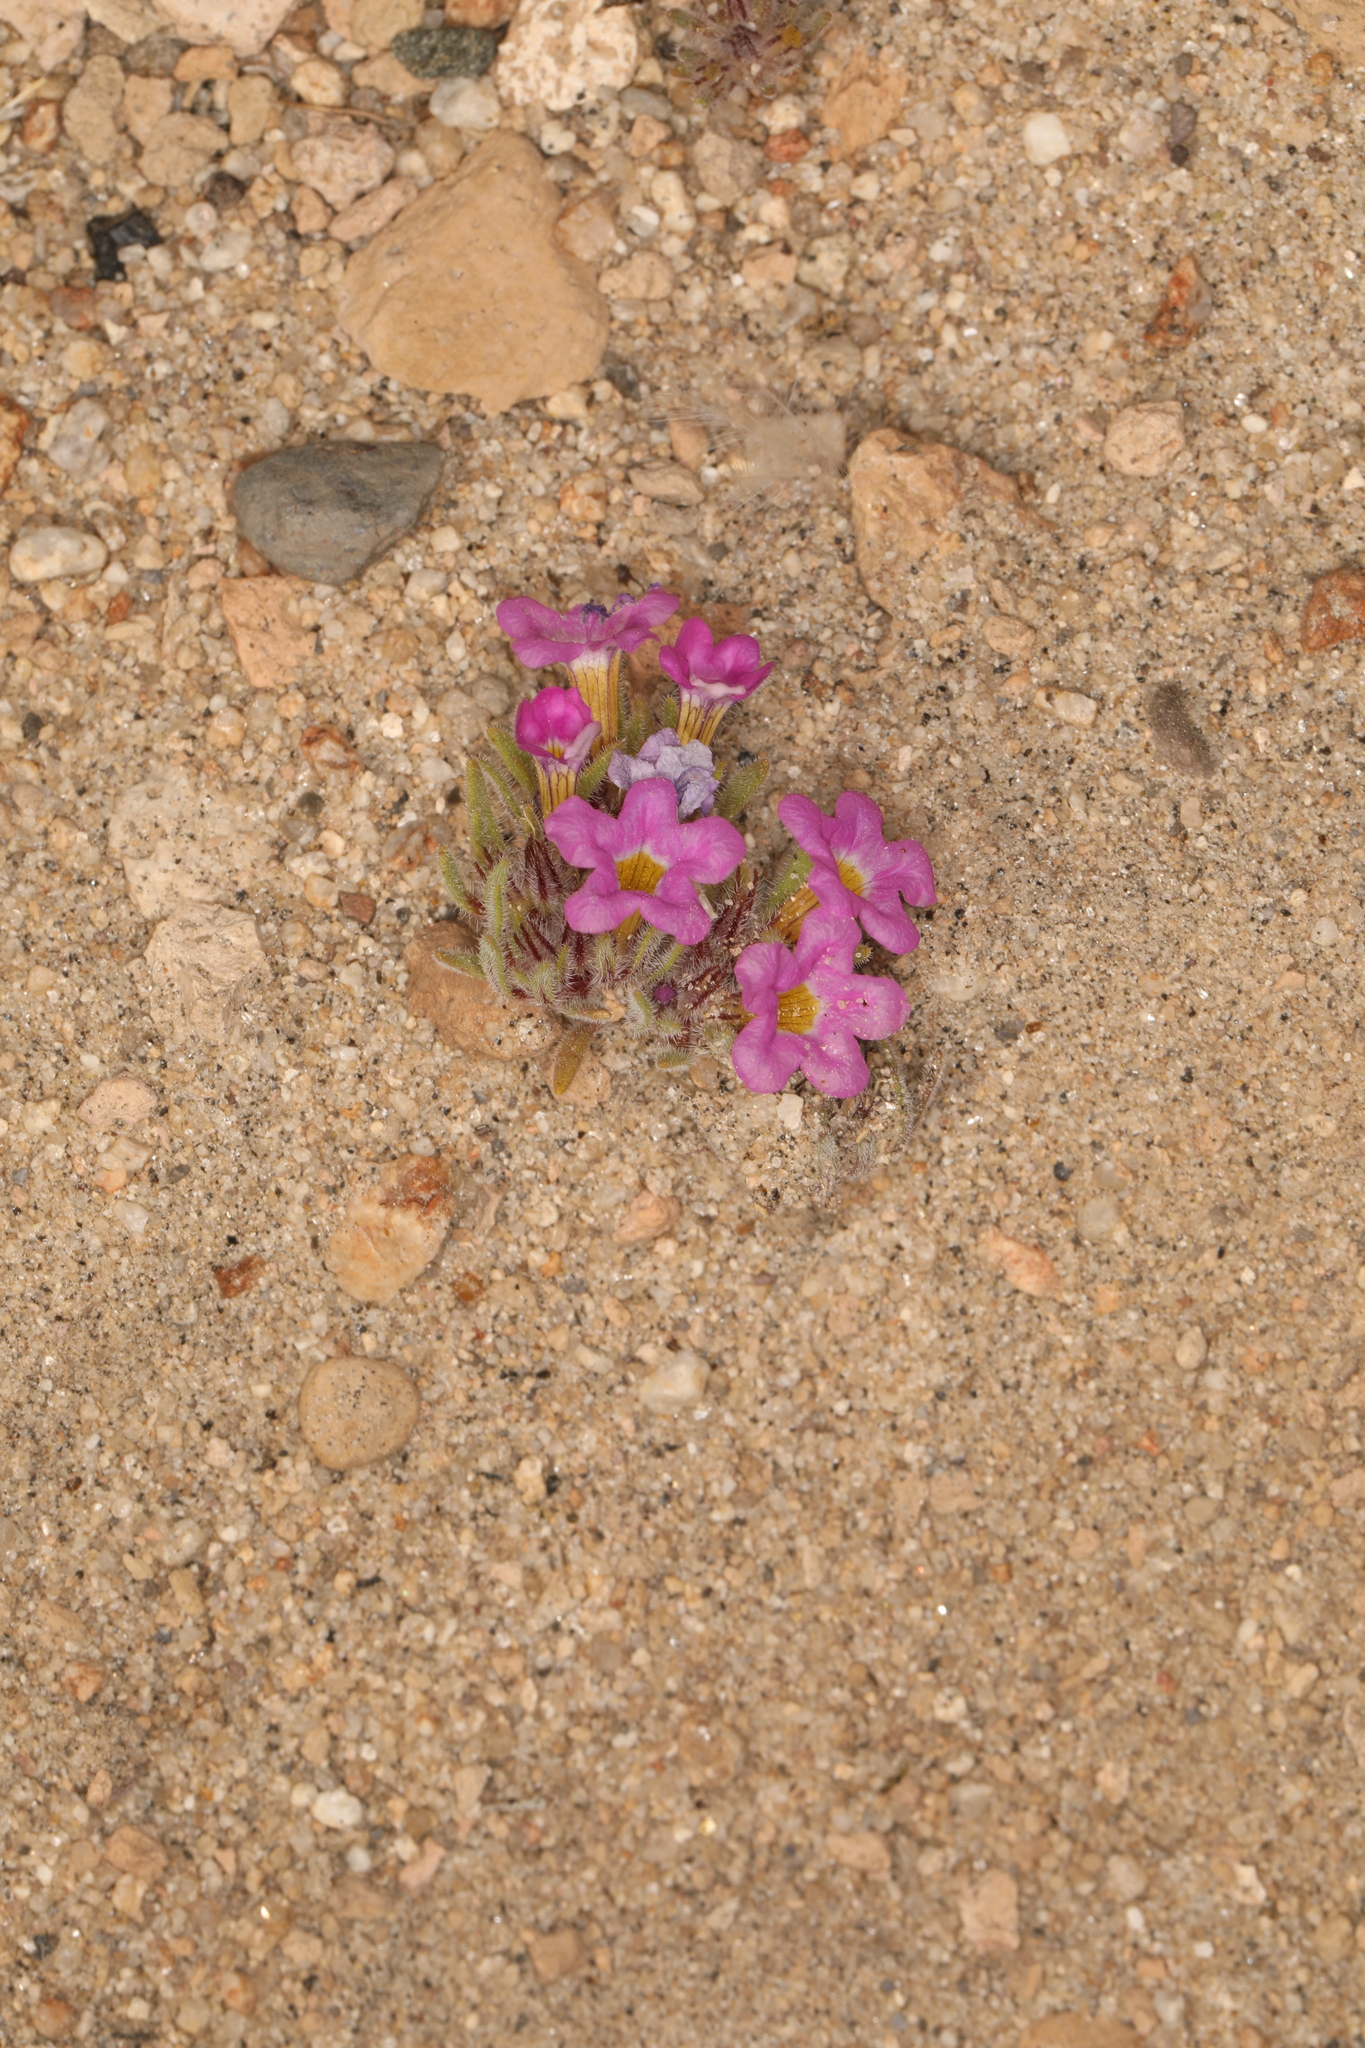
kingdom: Plantae
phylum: Tracheophyta
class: Magnoliopsida
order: Boraginales
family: Namaceae
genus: Nama
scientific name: Nama aretioides
